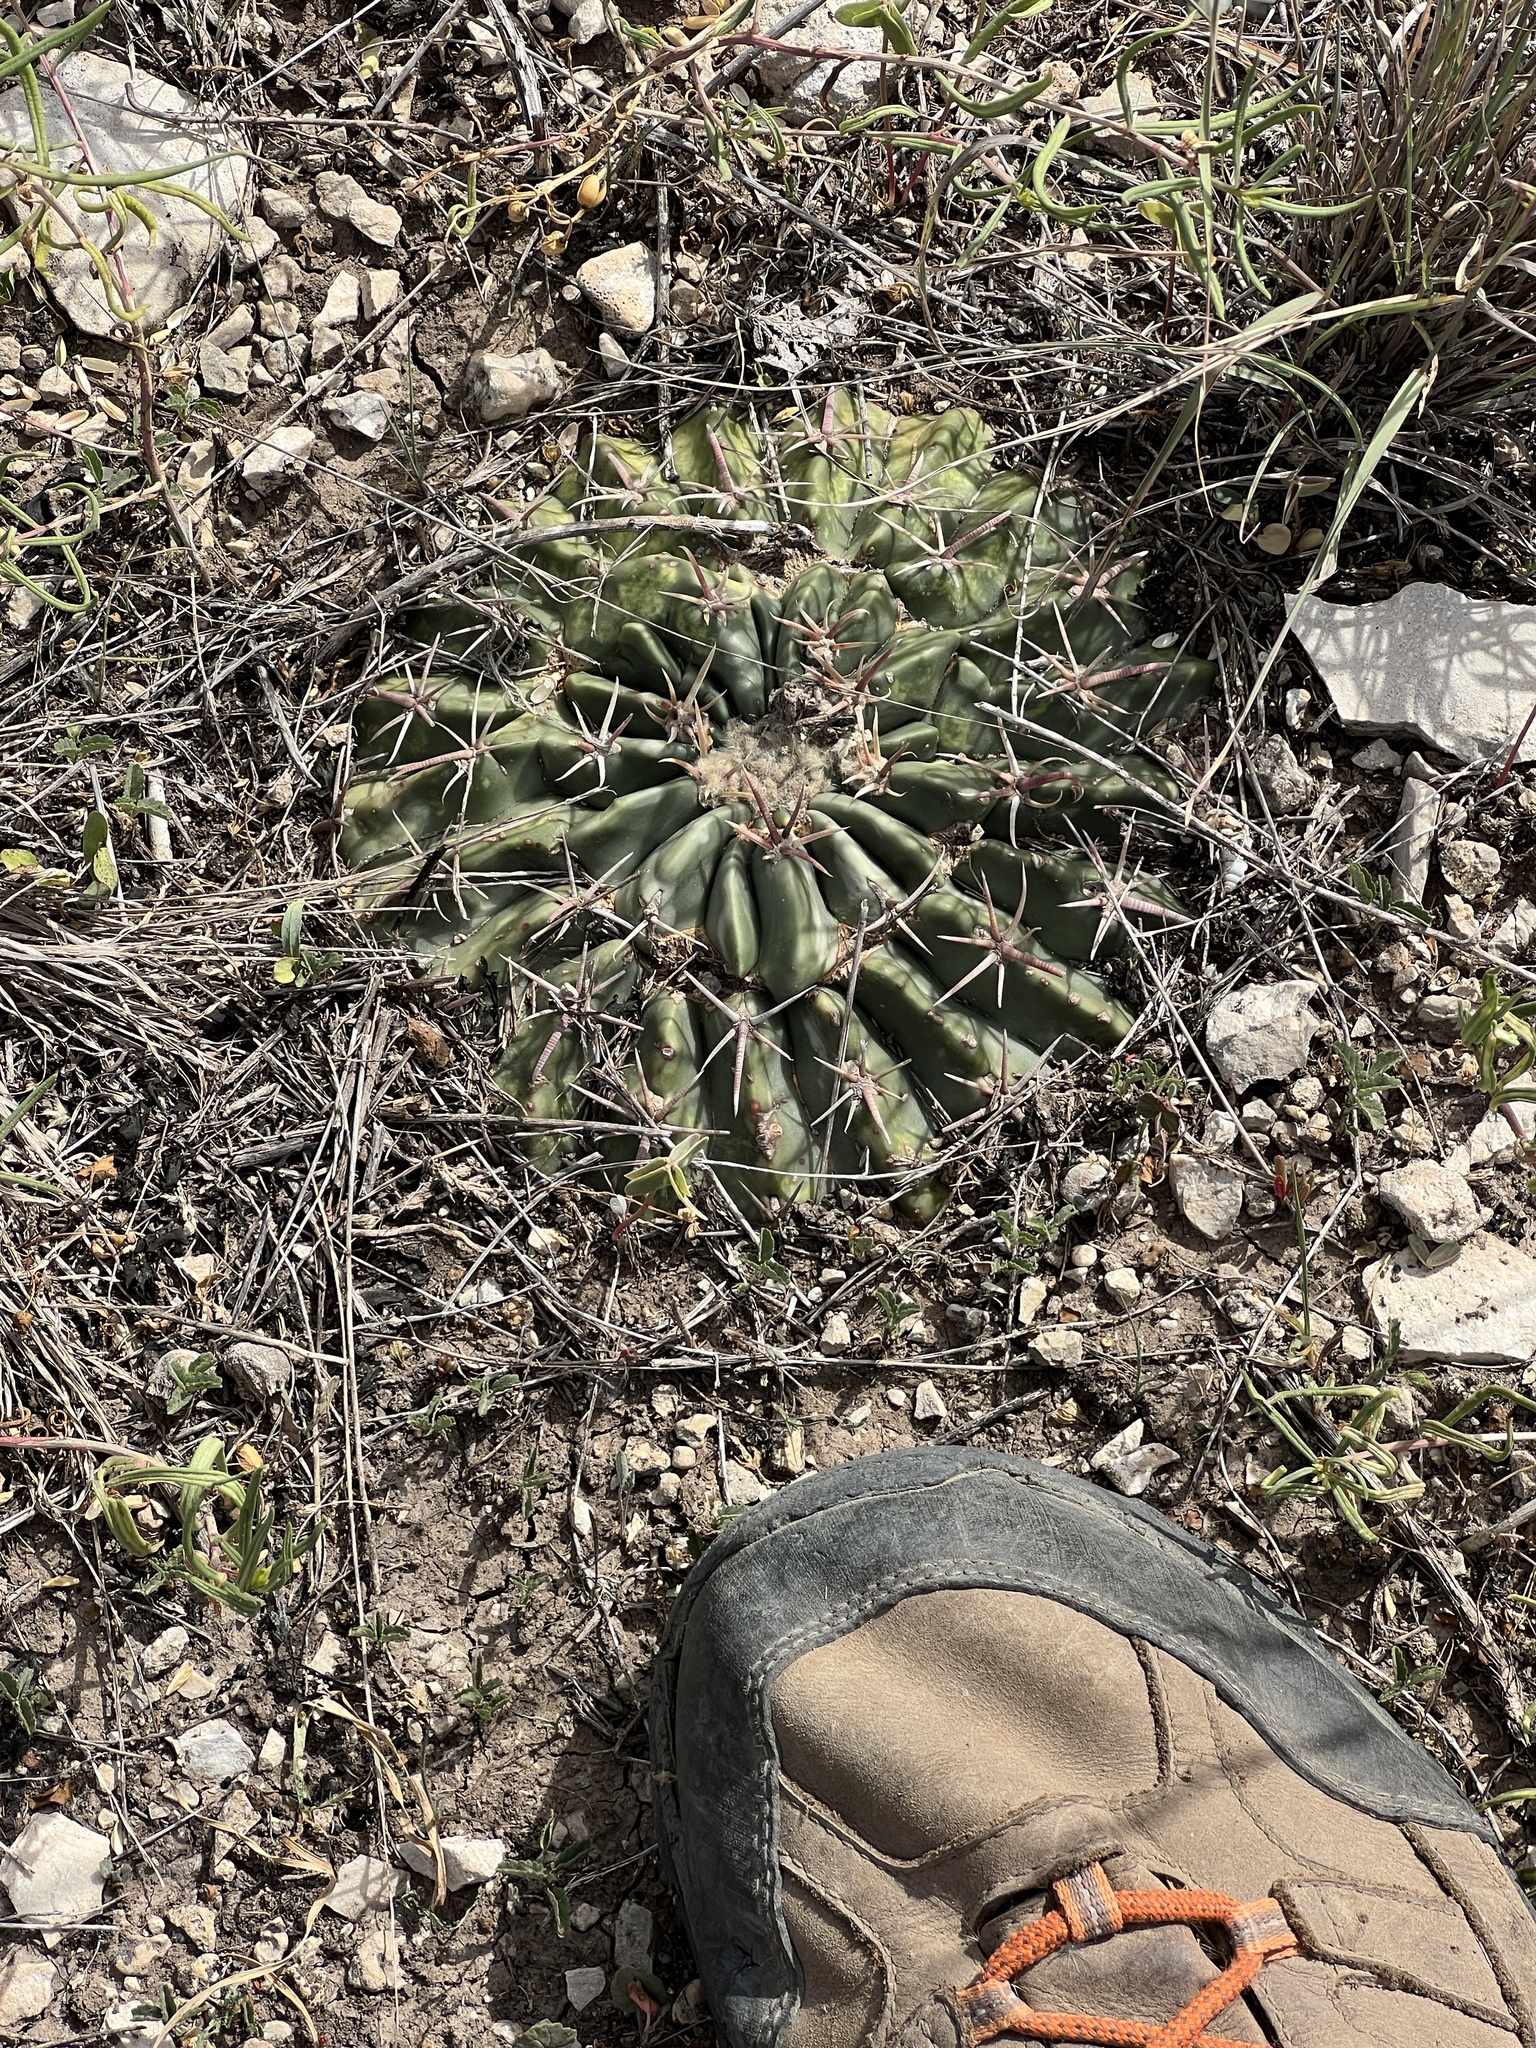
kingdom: Plantae
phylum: Tracheophyta
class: Magnoliopsida
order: Caryophyllales
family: Cactaceae
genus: Echinocactus
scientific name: Echinocactus texensis
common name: Devil's pincushion
